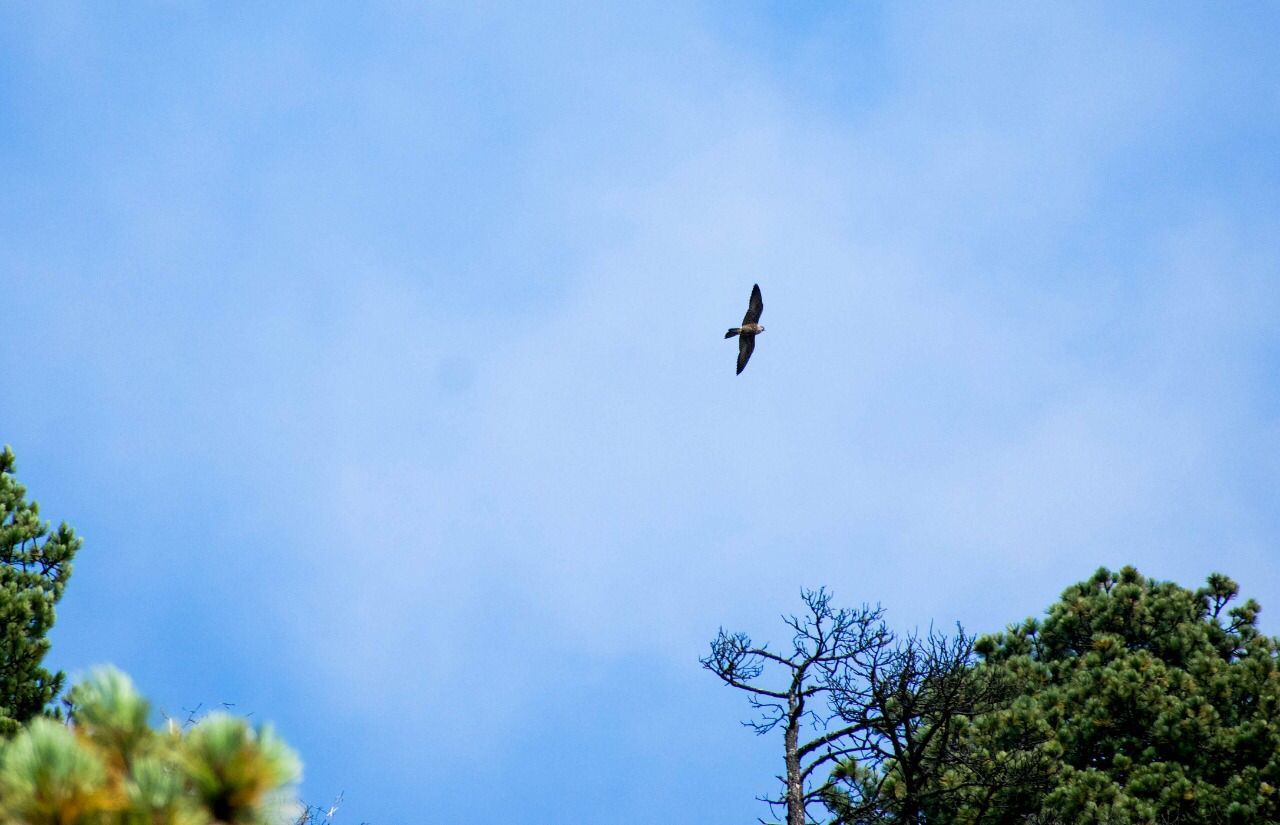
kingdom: Animalia
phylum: Chordata
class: Aves
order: Falconiformes
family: Falconidae
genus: Falco
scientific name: Falco peregrinus
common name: Peregrine falcon
